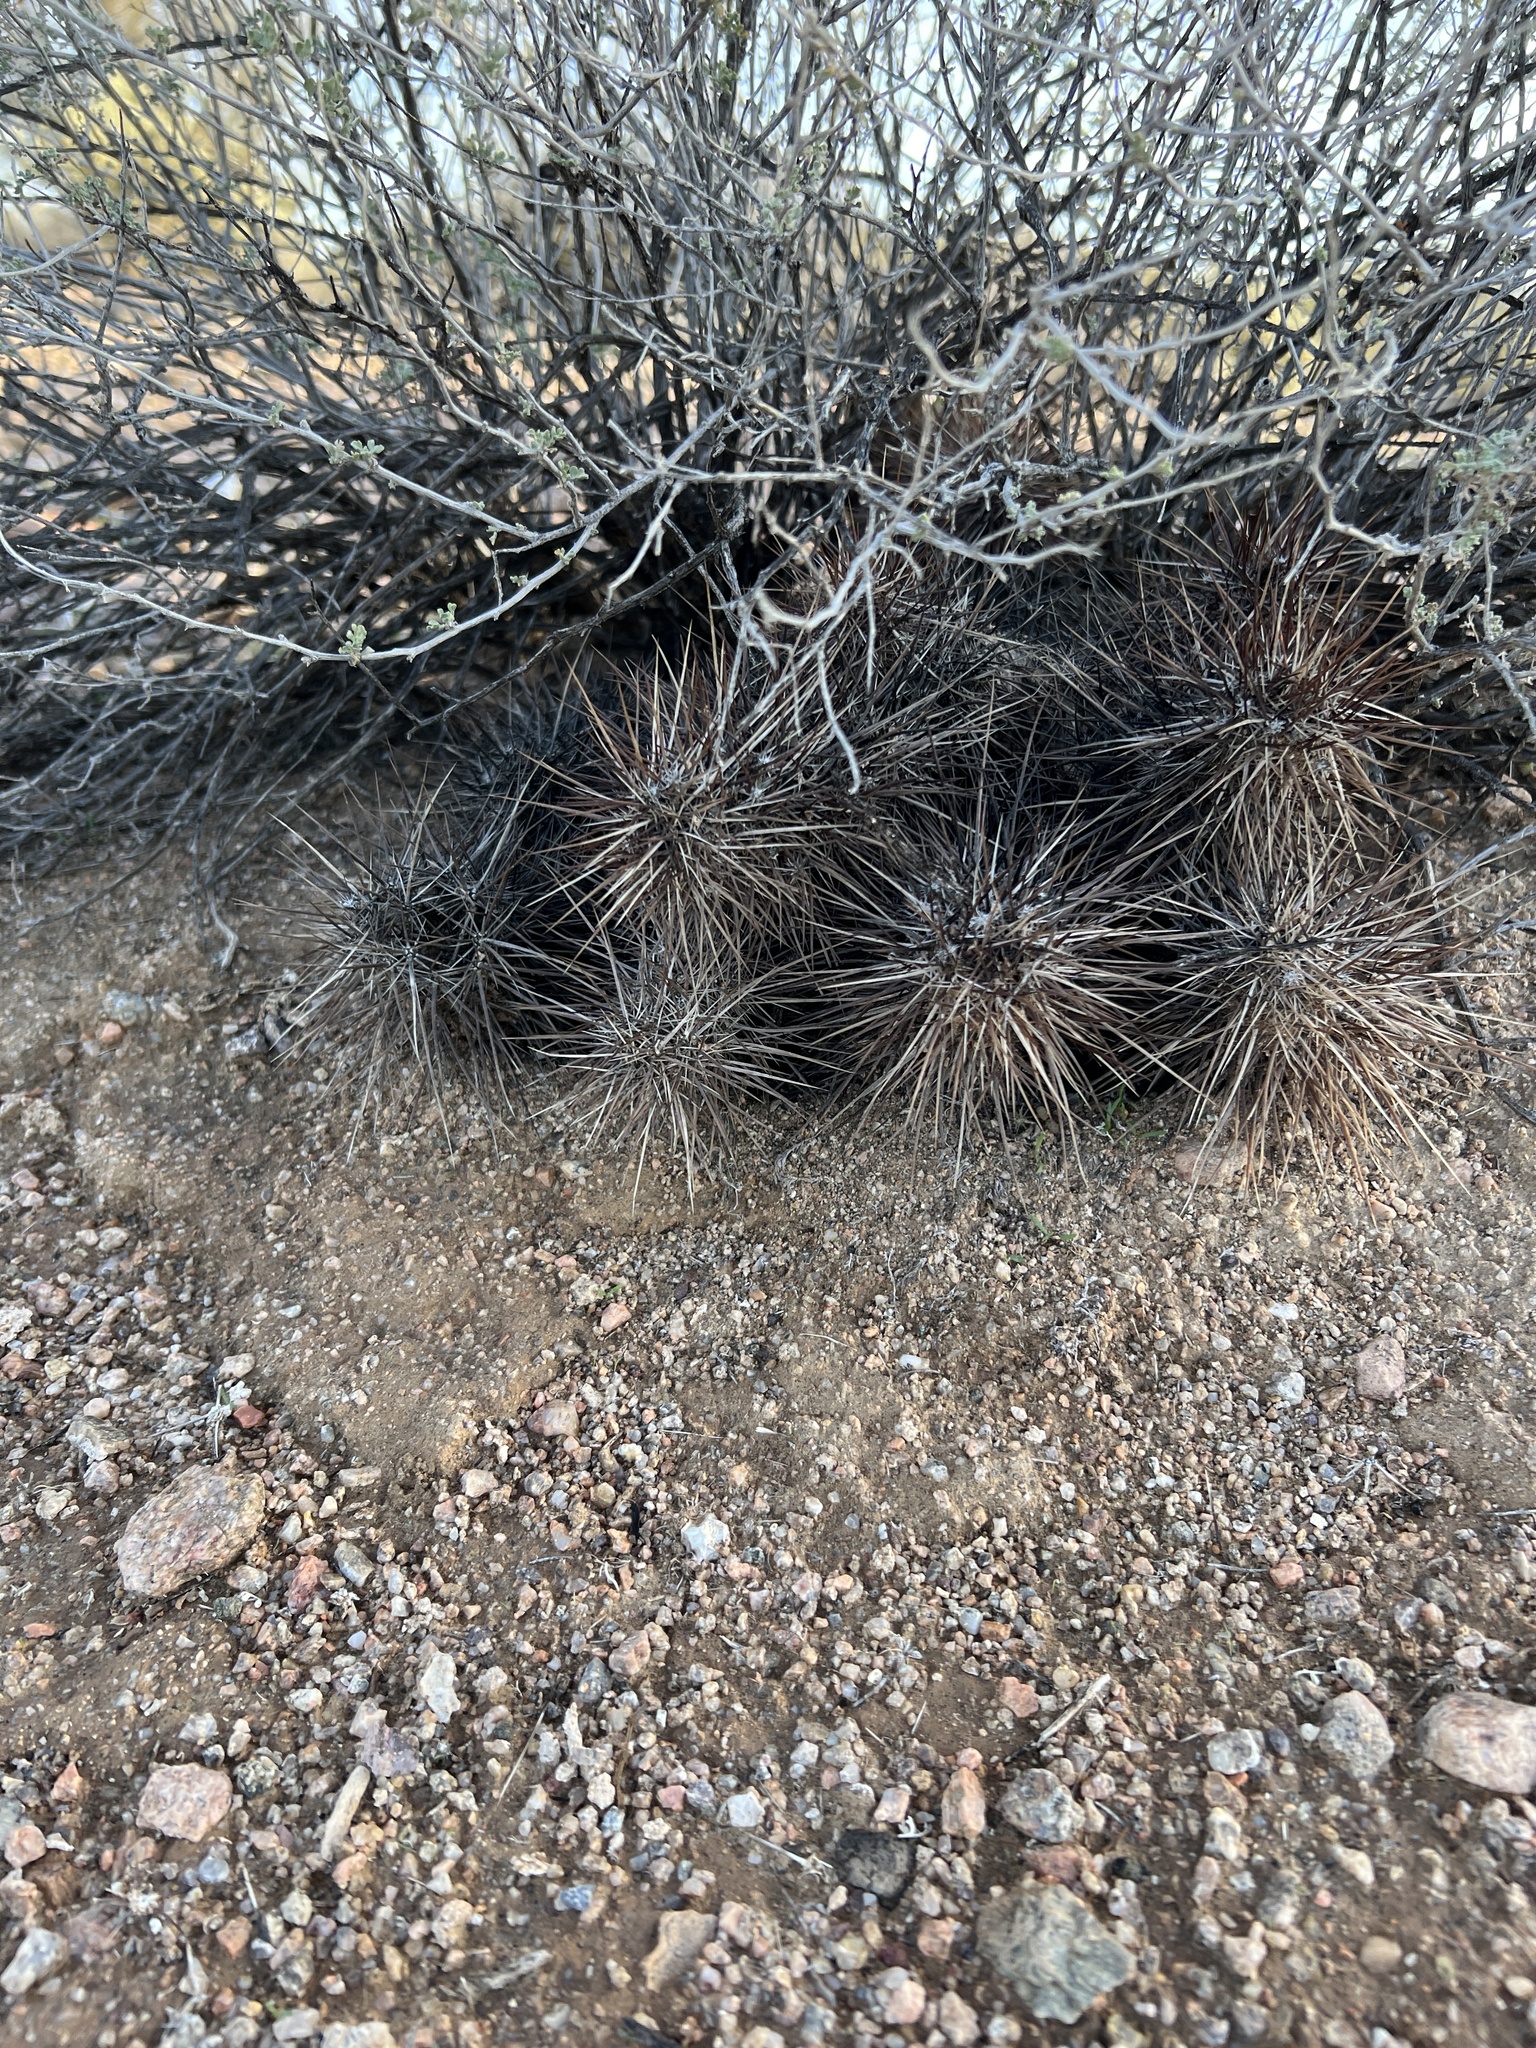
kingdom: Plantae
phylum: Tracheophyta
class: Magnoliopsida
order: Caryophyllales
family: Cactaceae
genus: Echinocereus
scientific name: Echinocereus engelmannii
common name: Engelmann's hedgehog cactus
